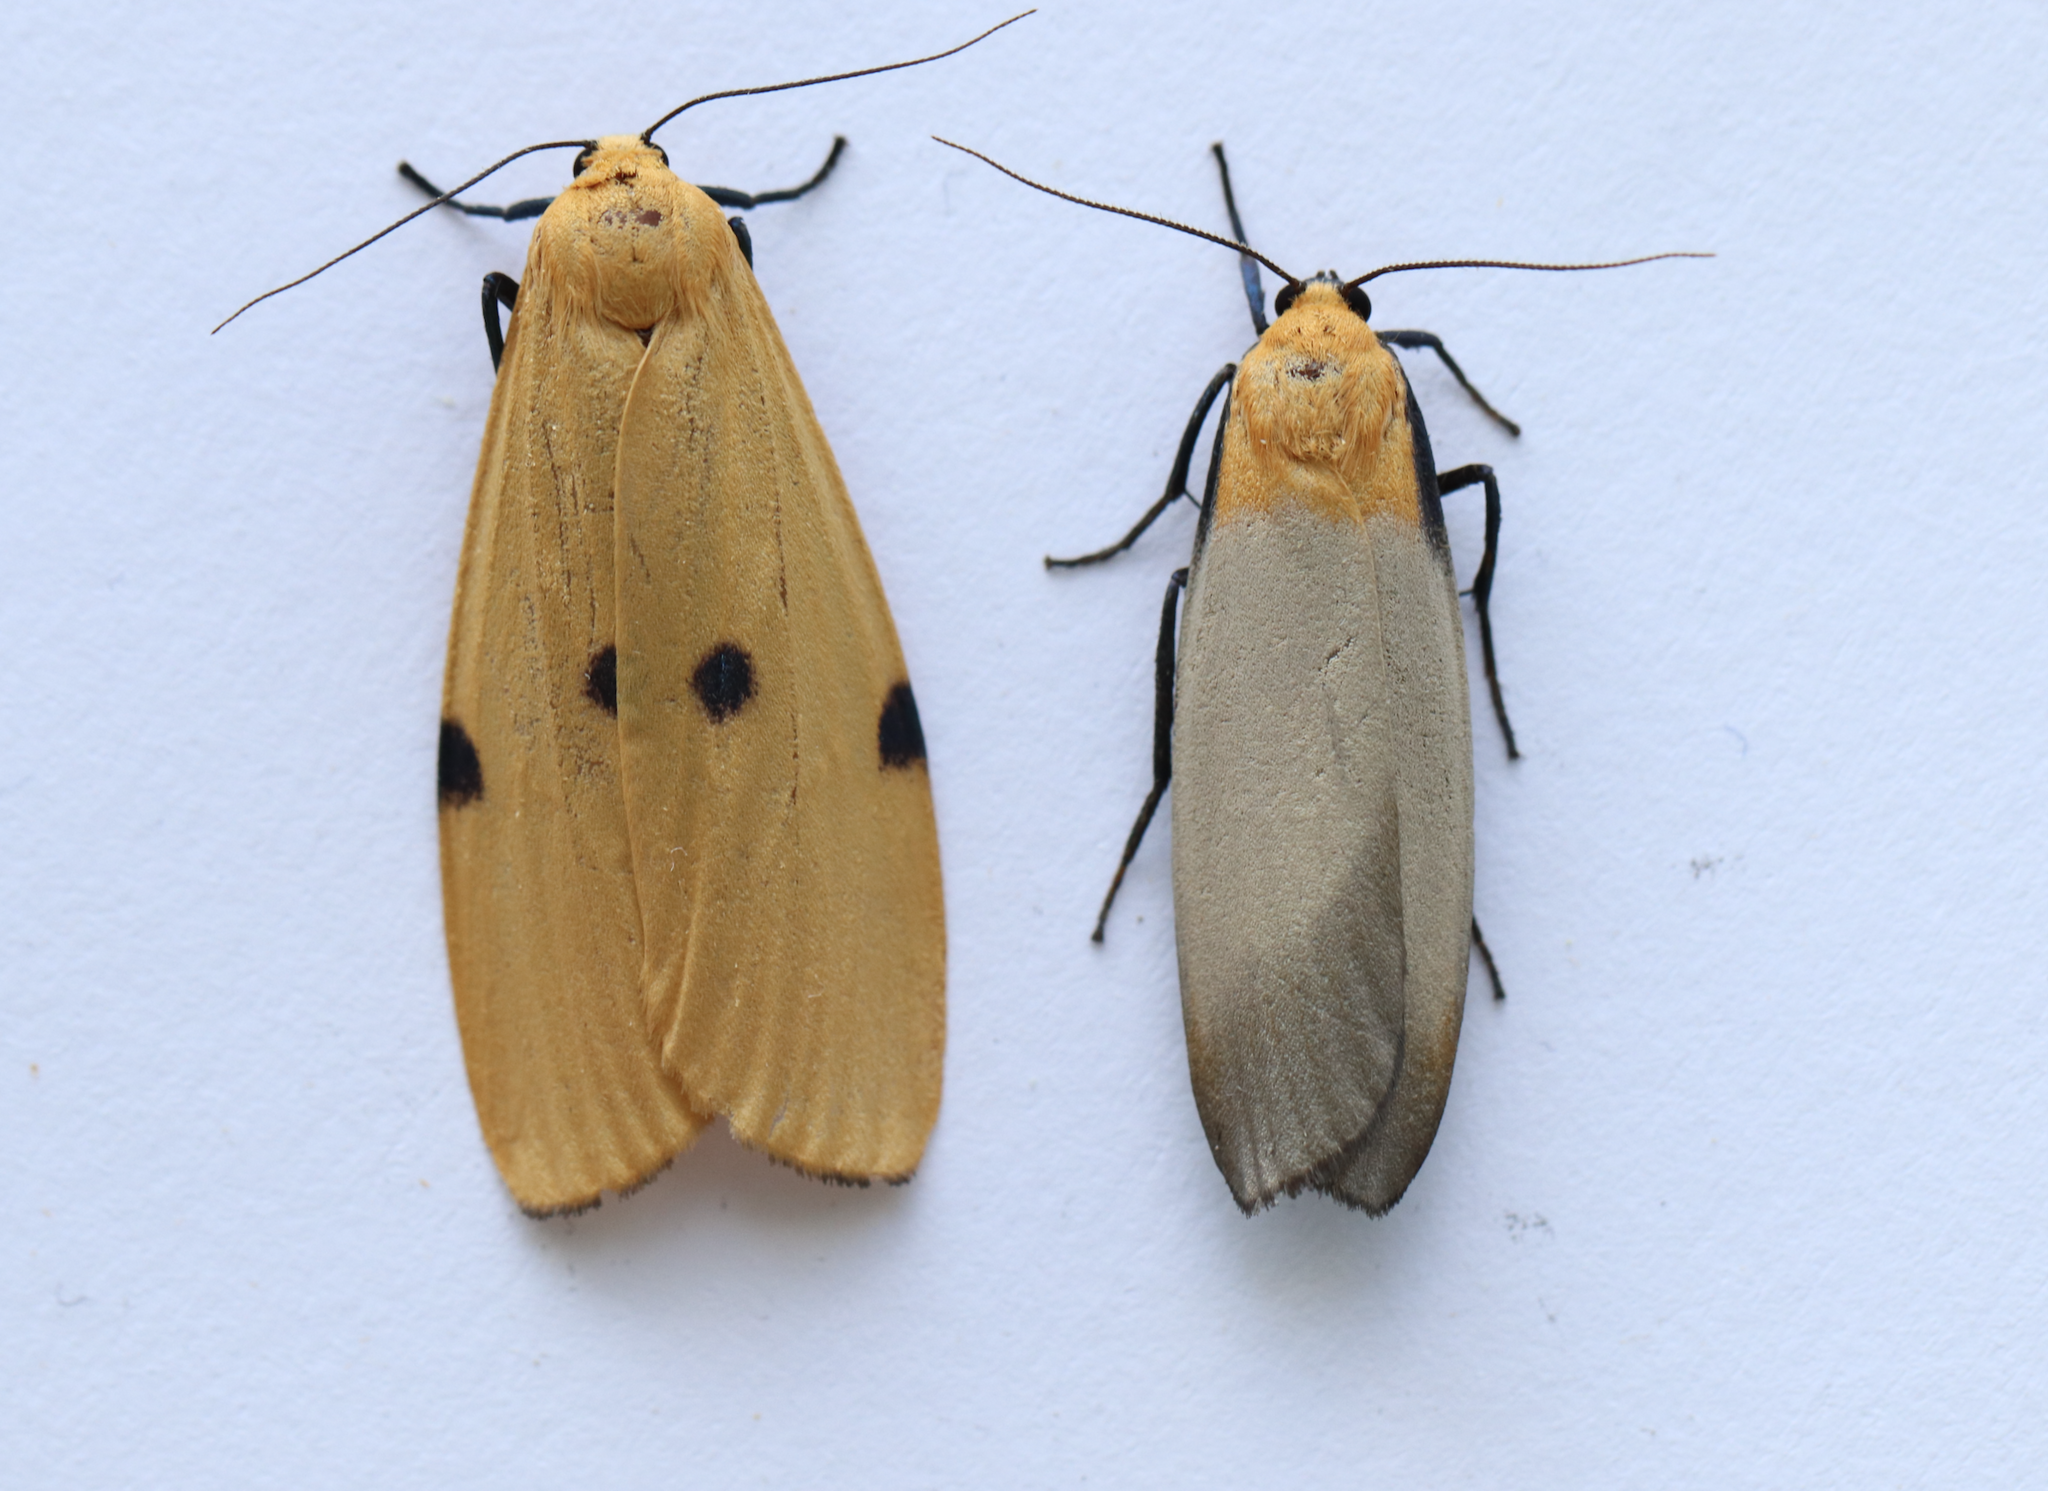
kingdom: Animalia
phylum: Arthropoda
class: Insecta
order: Lepidoptera
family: Erebidae
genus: Lithosia
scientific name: Lithosia quadra
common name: Four-spotted footman
